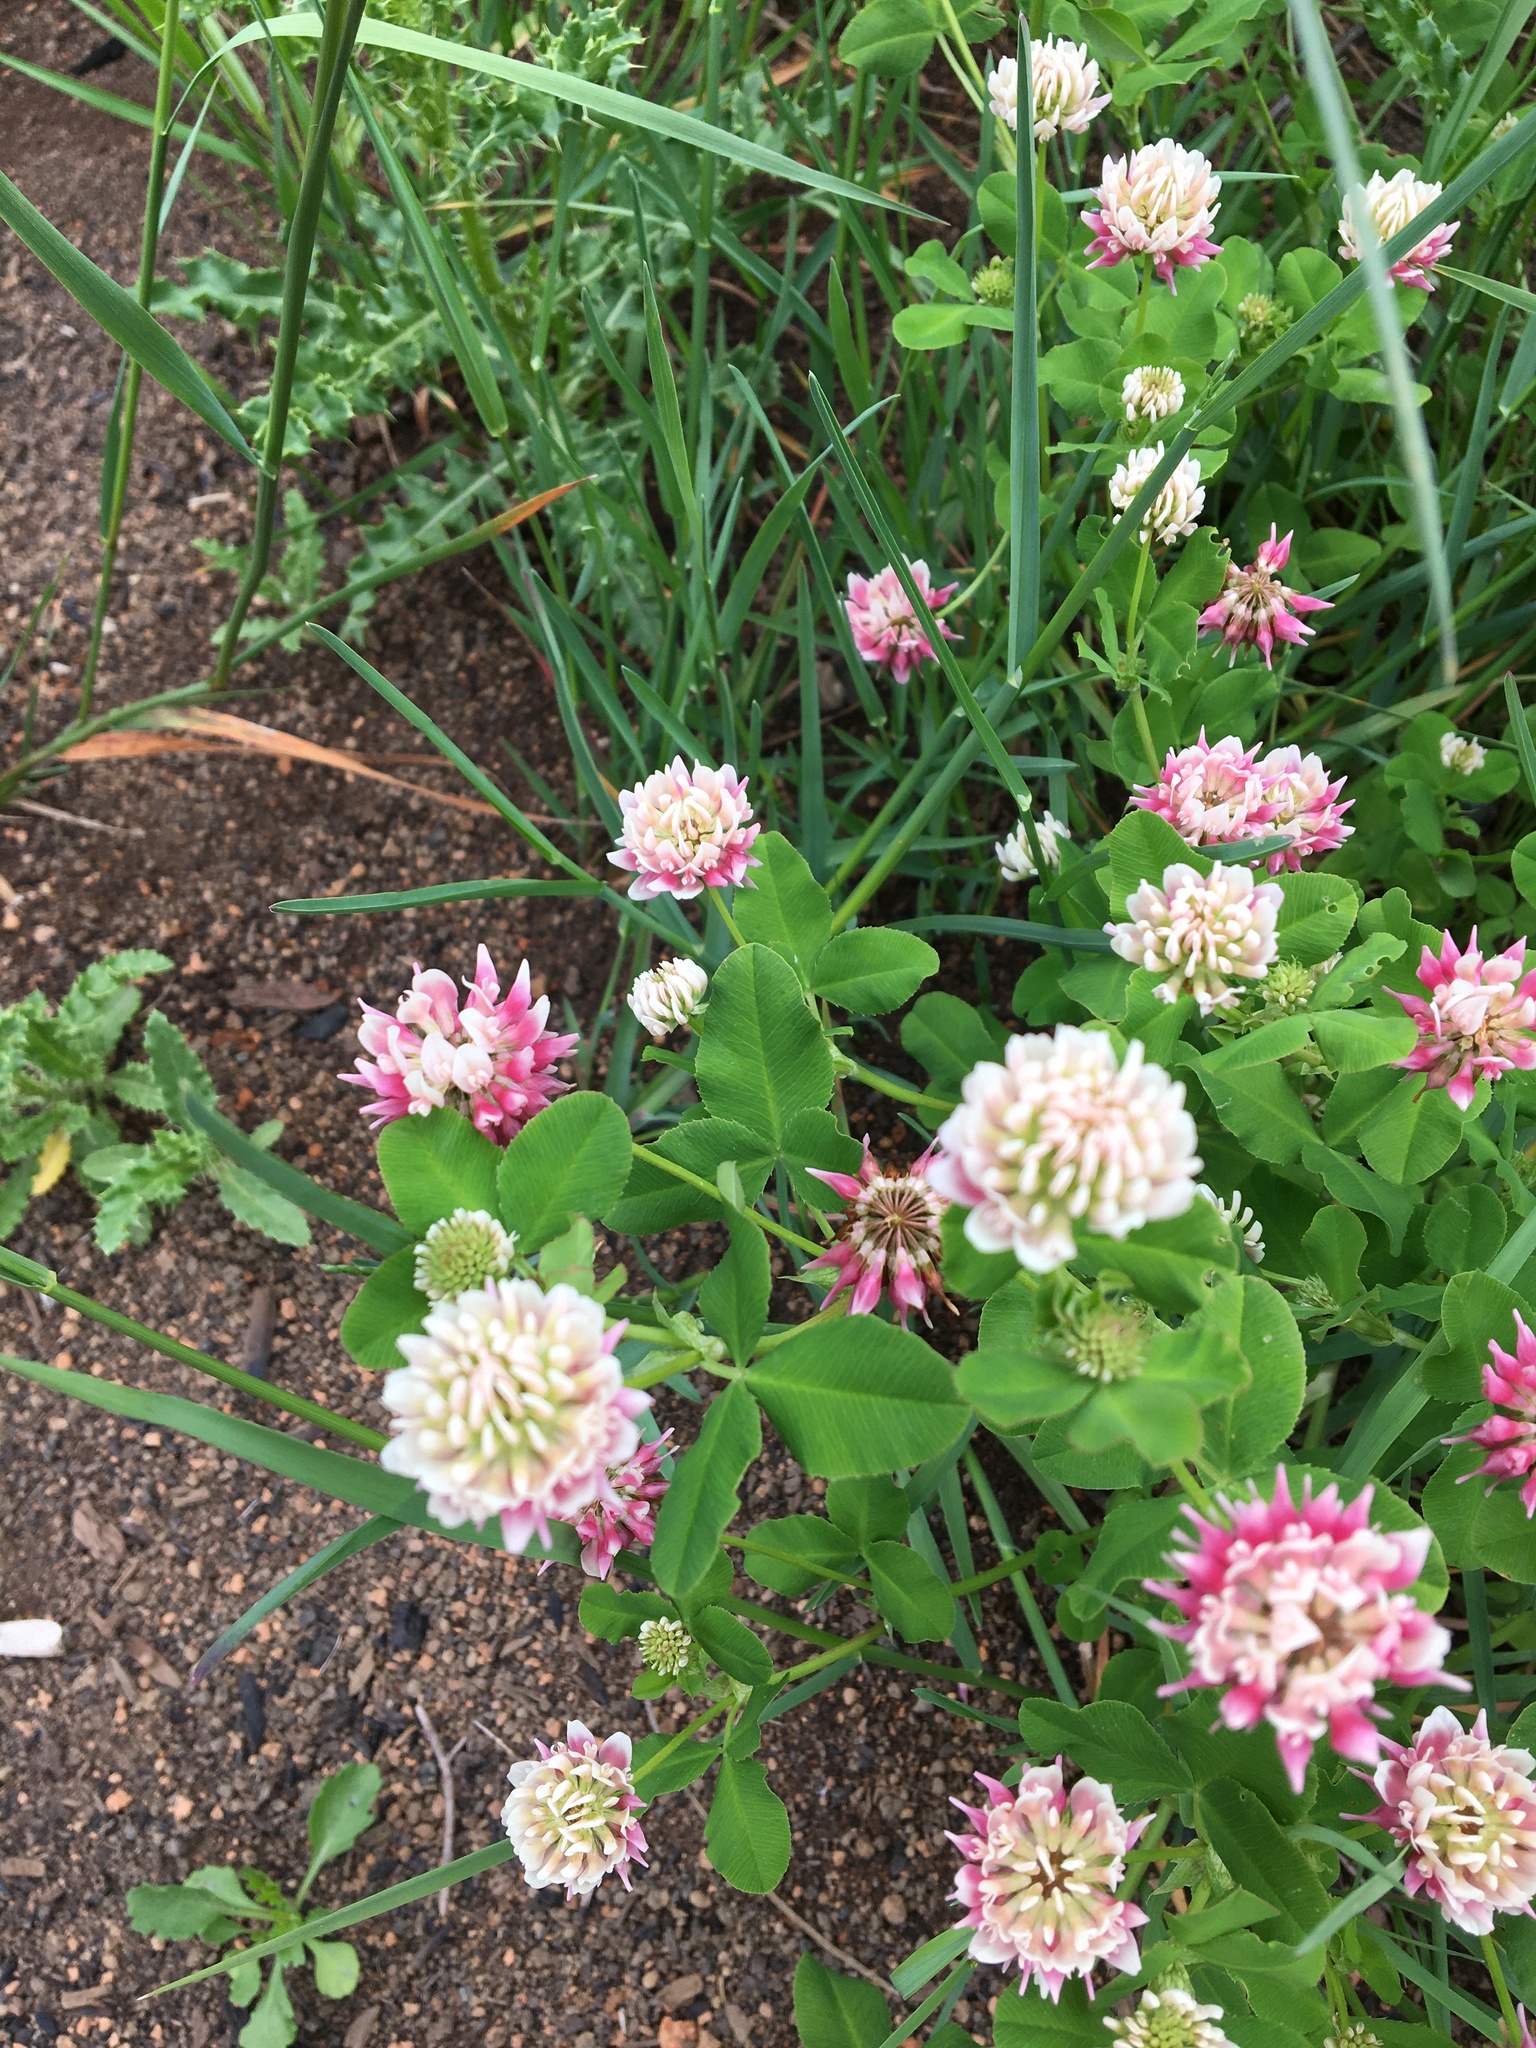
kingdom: Plantae
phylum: Tracheophyta
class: Magnoliopsida
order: Fabales
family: Fabaceae
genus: Trifolium
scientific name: Trifolium hybridum
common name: Alsike clover
